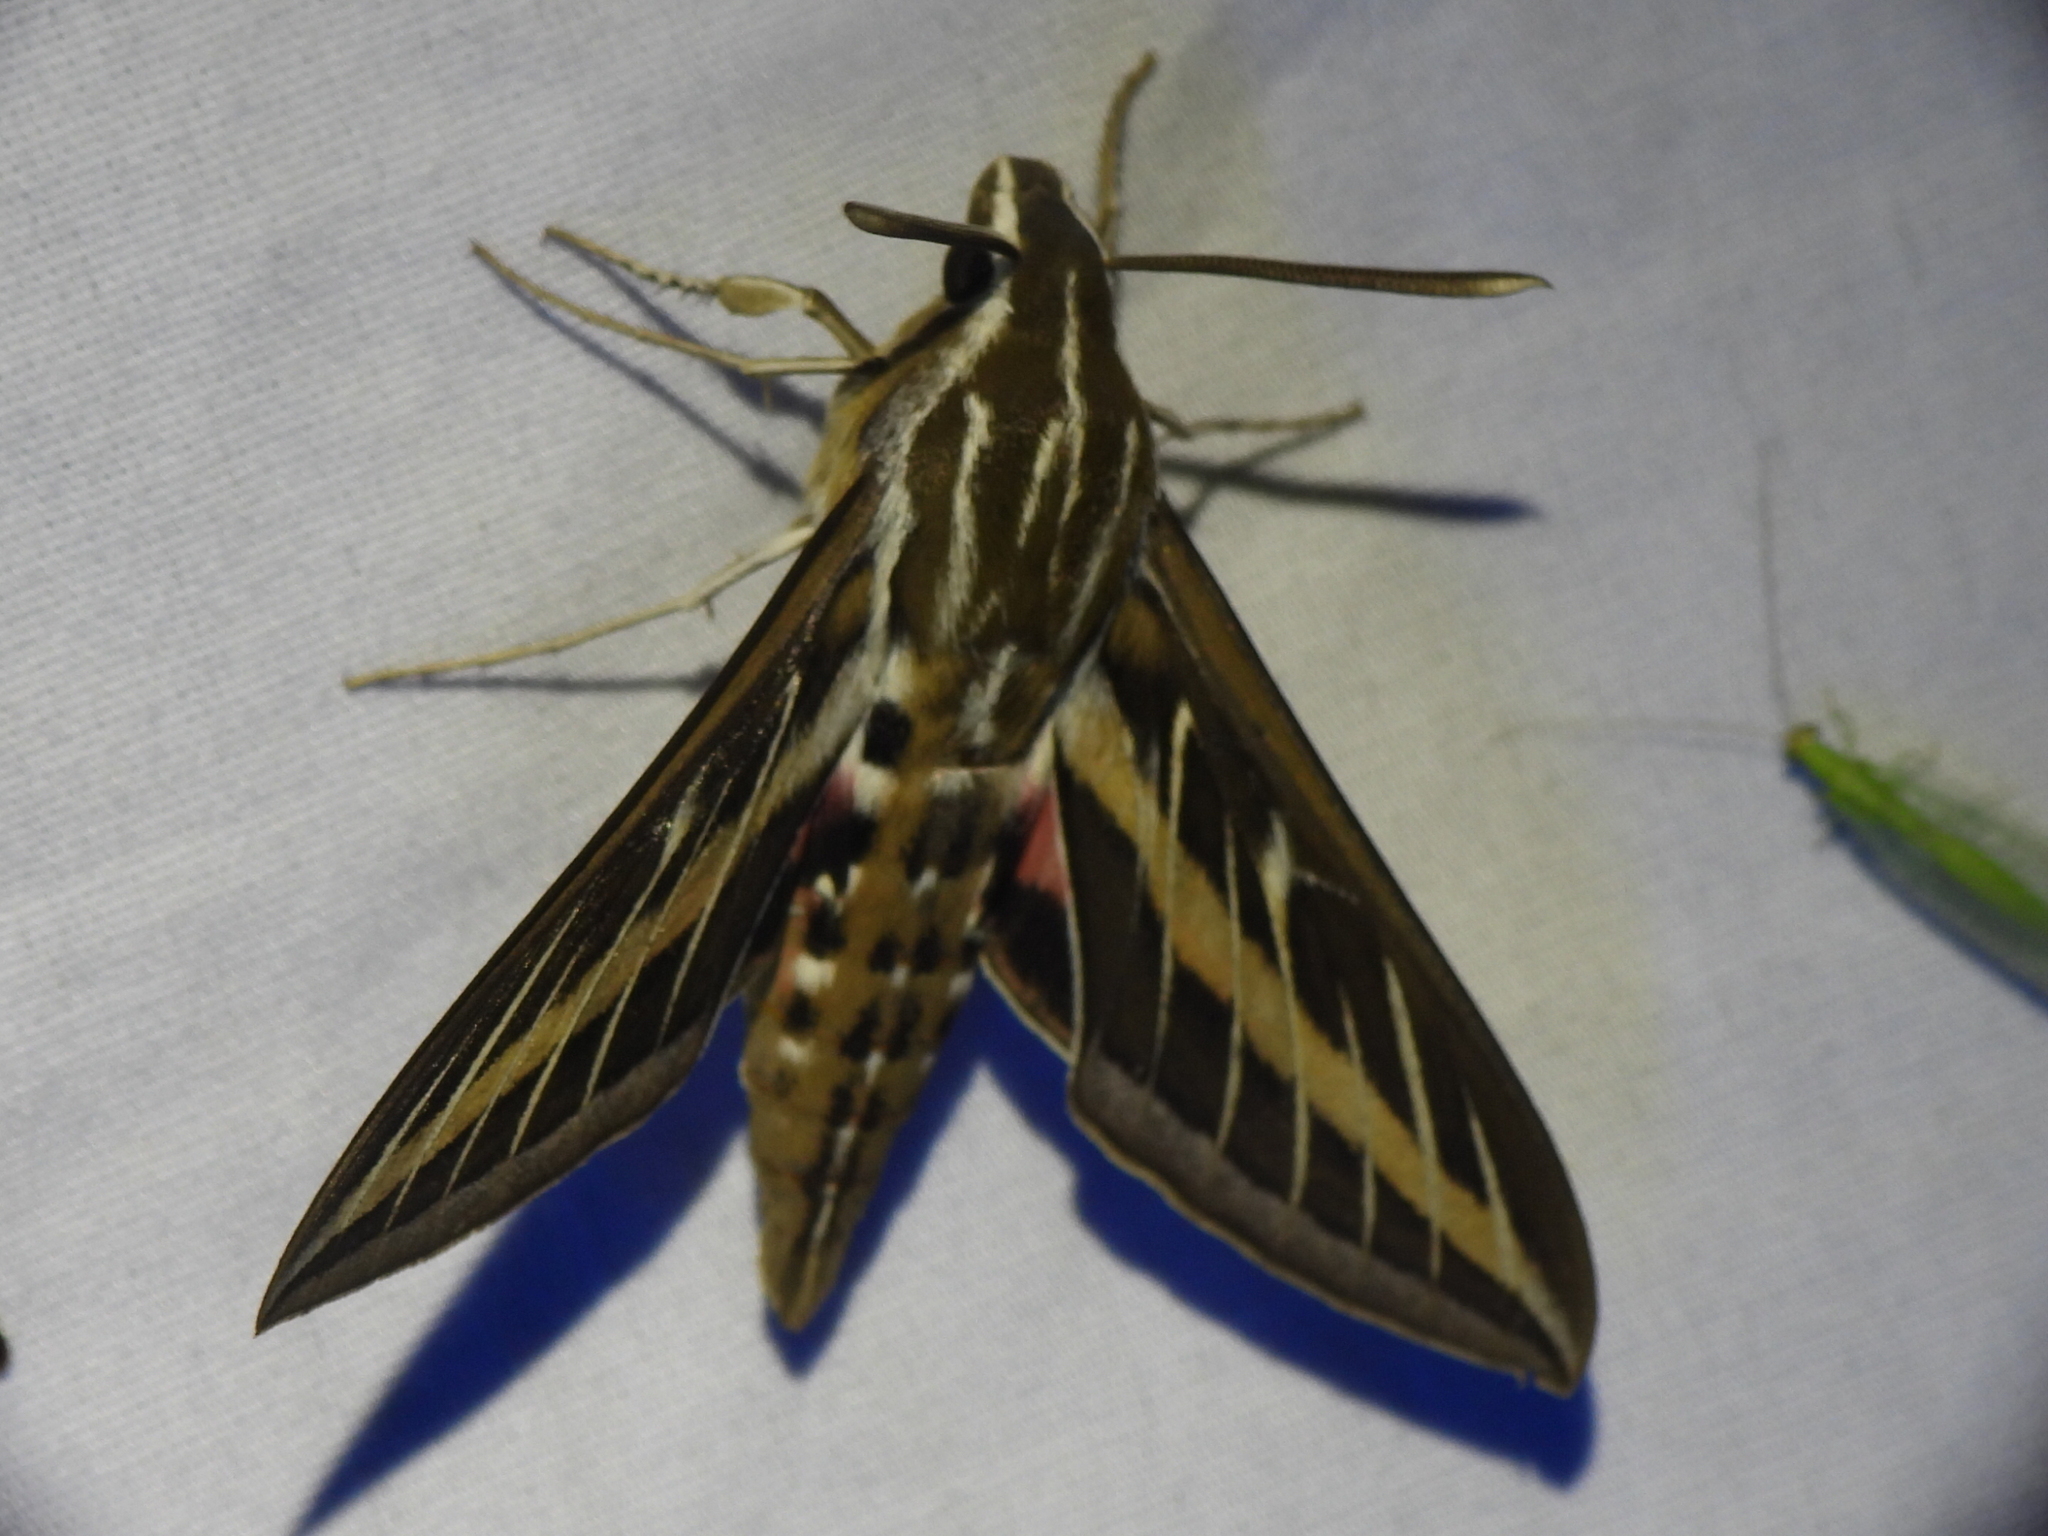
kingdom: Animalia
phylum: Arthropoda
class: Insecta
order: Lepidoptera
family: Sphingidae
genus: Hyles
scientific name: Hyles lineata
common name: White-lined sphinx
